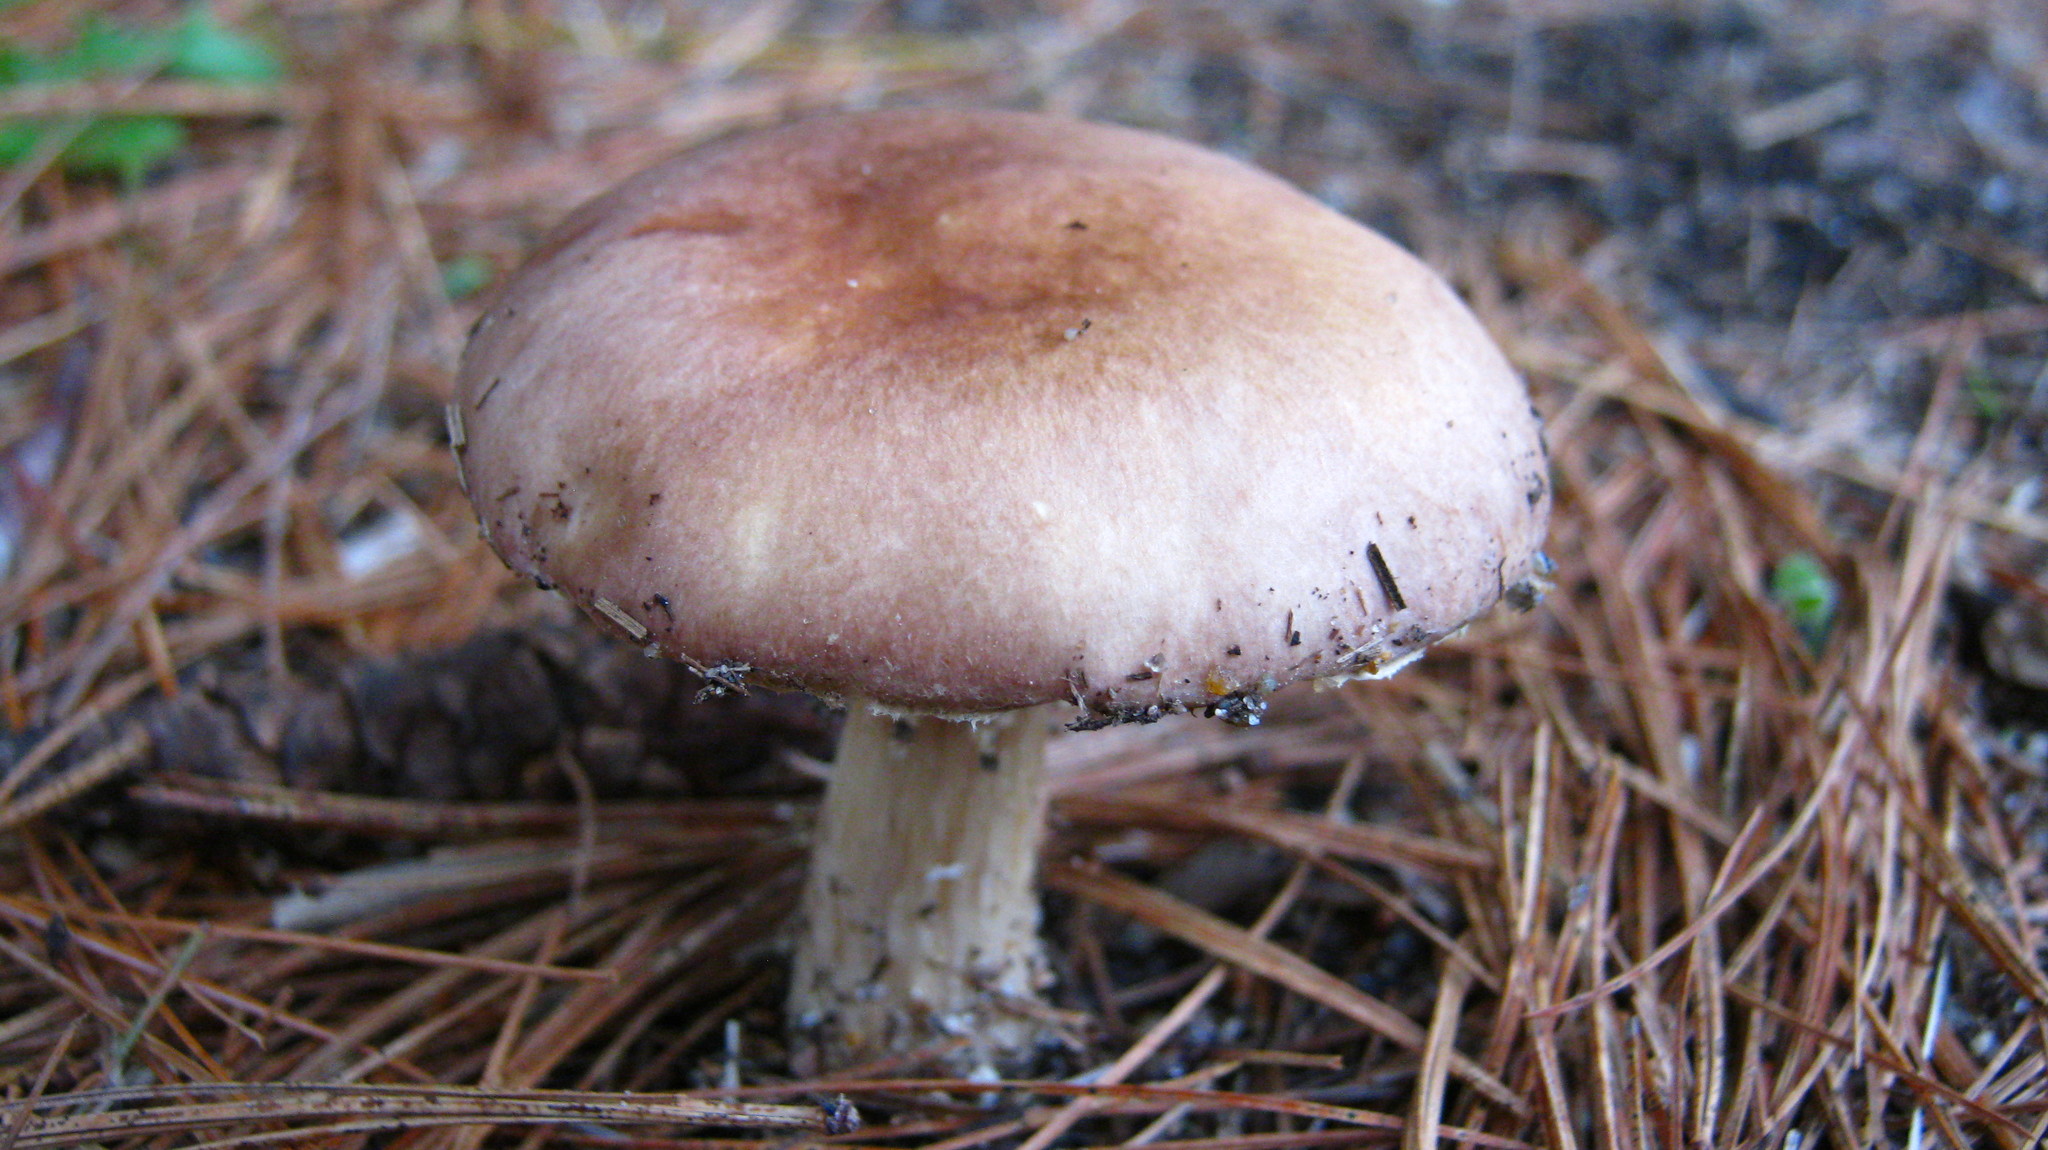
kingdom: Fungi
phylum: Basidiomycota
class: Agaricomycetes
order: Agaricales
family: Strophariaceae
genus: Stropharia
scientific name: Stropharia rugosoannulata
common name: Wine roundhead
